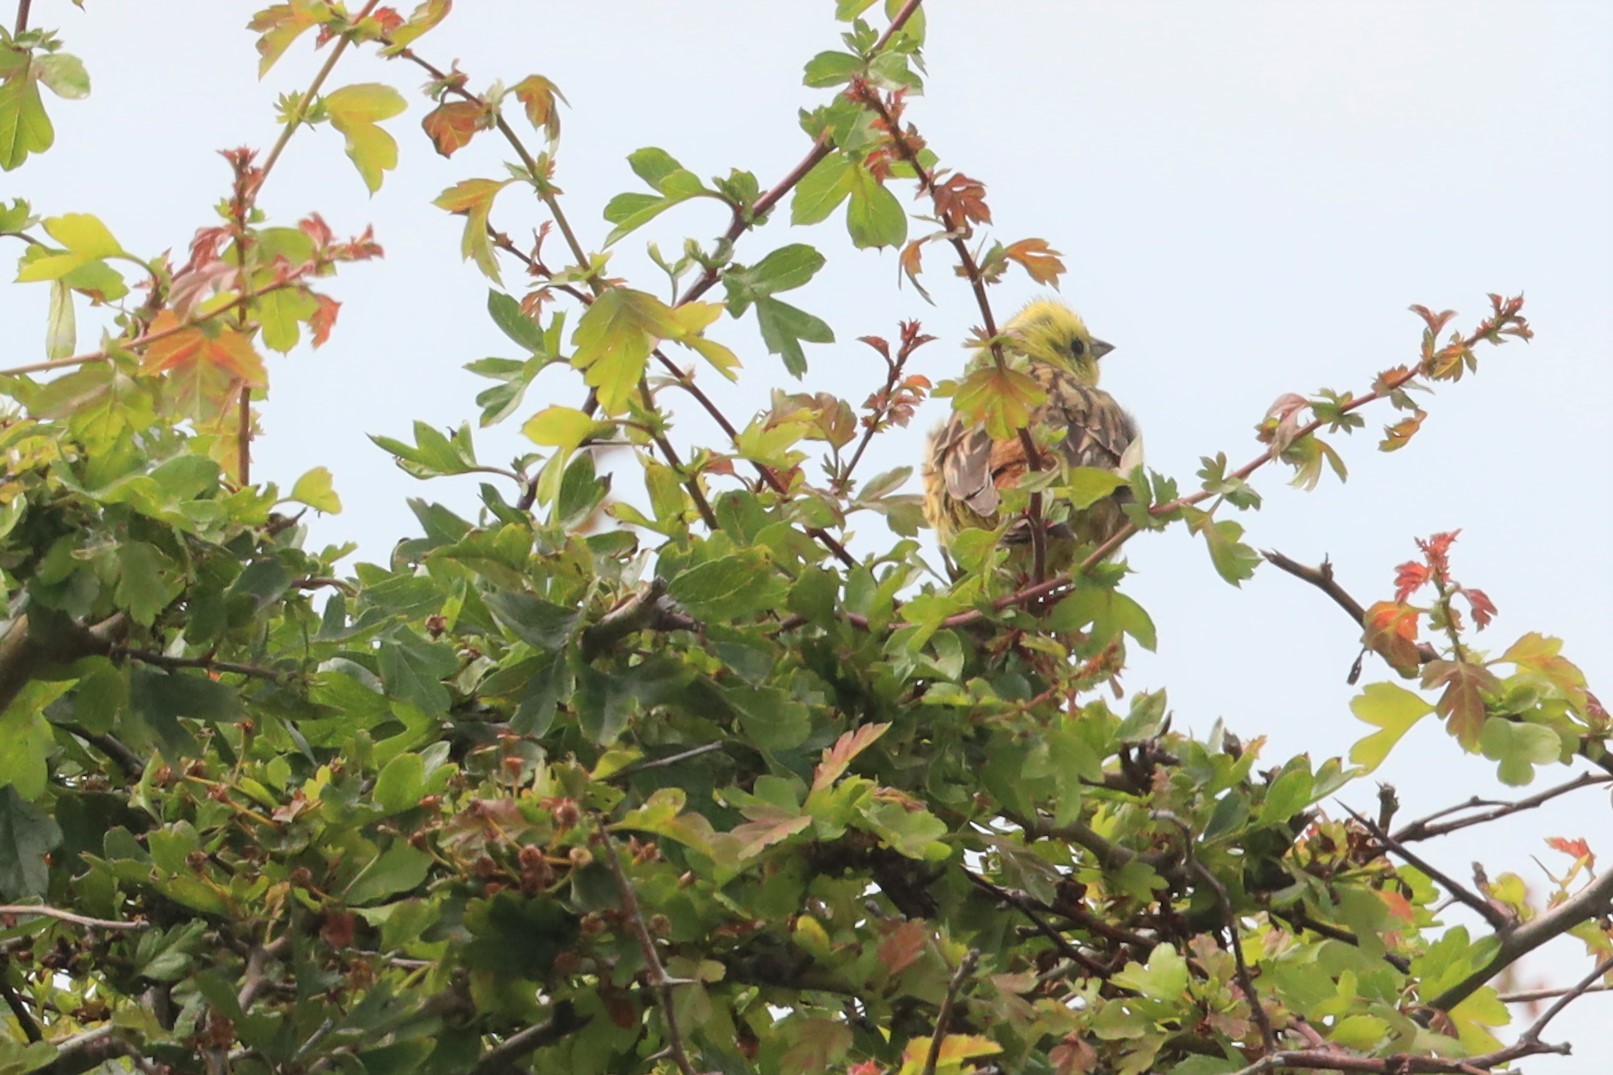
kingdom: Animalia
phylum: Chordata
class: Aves
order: Passeriformes
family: Emberizidae
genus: Emberiza
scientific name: Emberiza citrinella
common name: Yellowhammer
